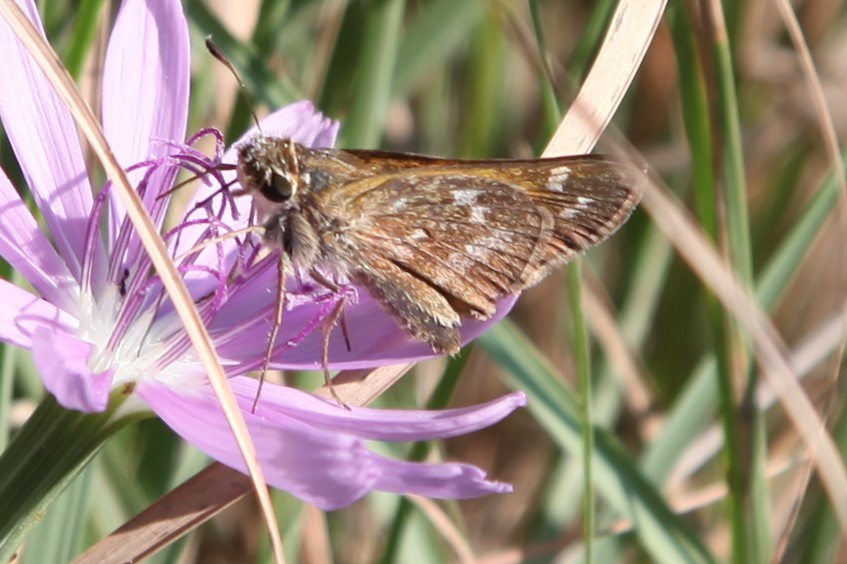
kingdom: Animalia
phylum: Arthropoda
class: Insecta
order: Lepidoptera
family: Hesperiidae
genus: Atalopedes
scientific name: Atalopedes
